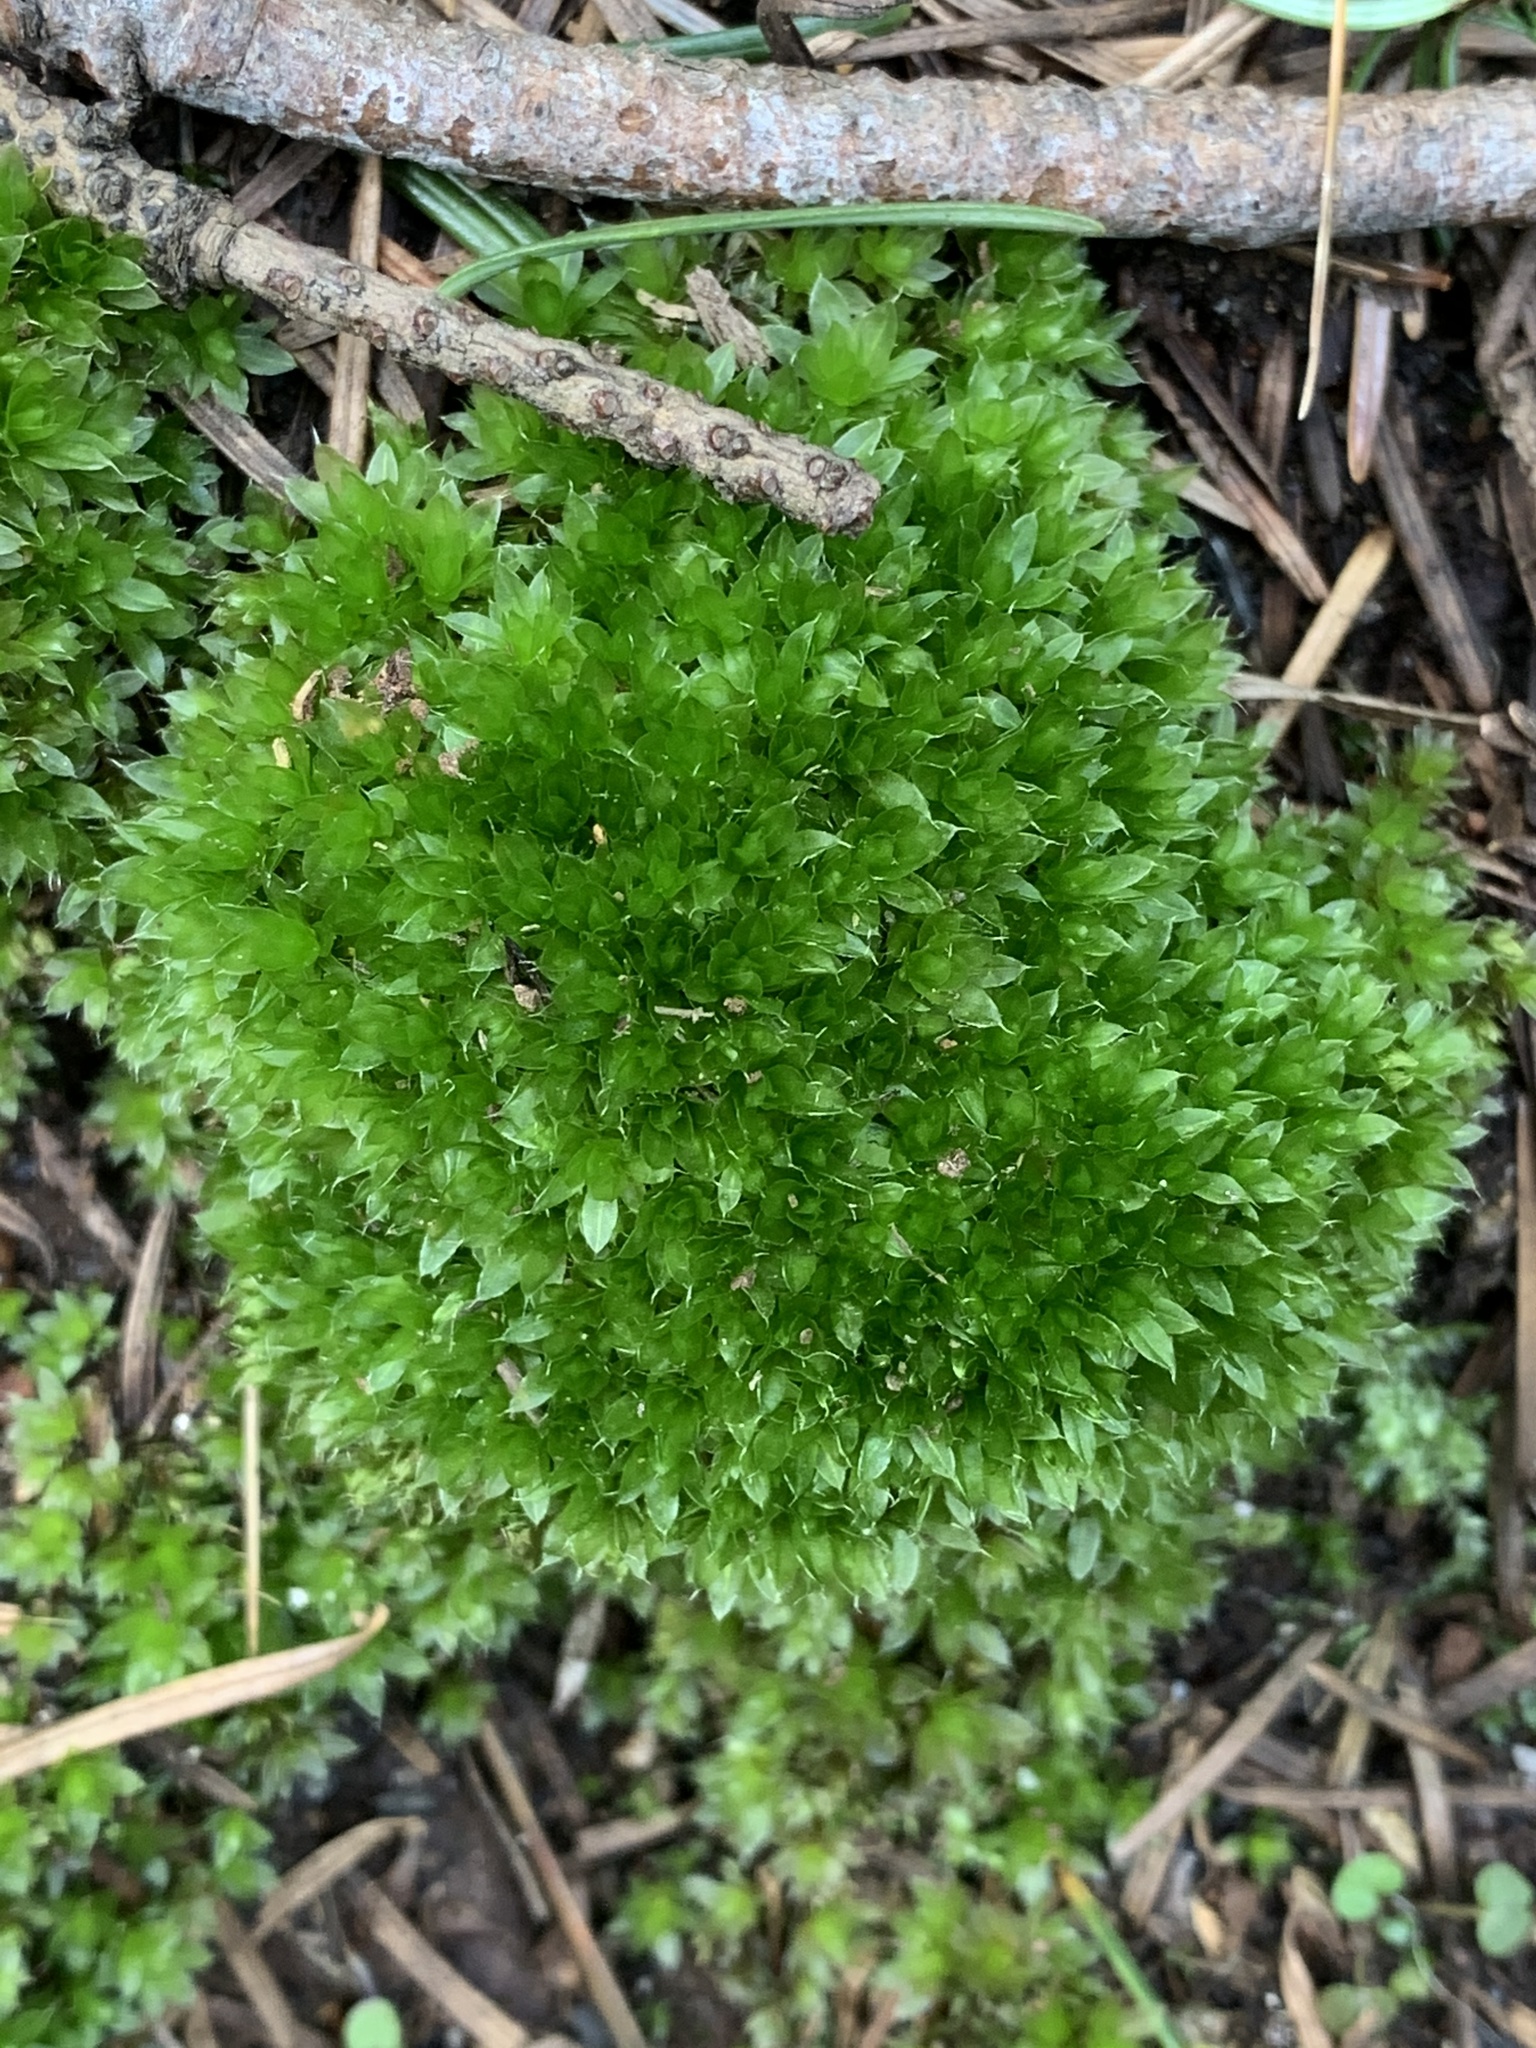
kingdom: Plantae
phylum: Bryophyta
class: Bryopsida
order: Bryales
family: Bryaceae
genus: Rosulabryum
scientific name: Rosulabryum capillare
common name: Capillary thread-moss
